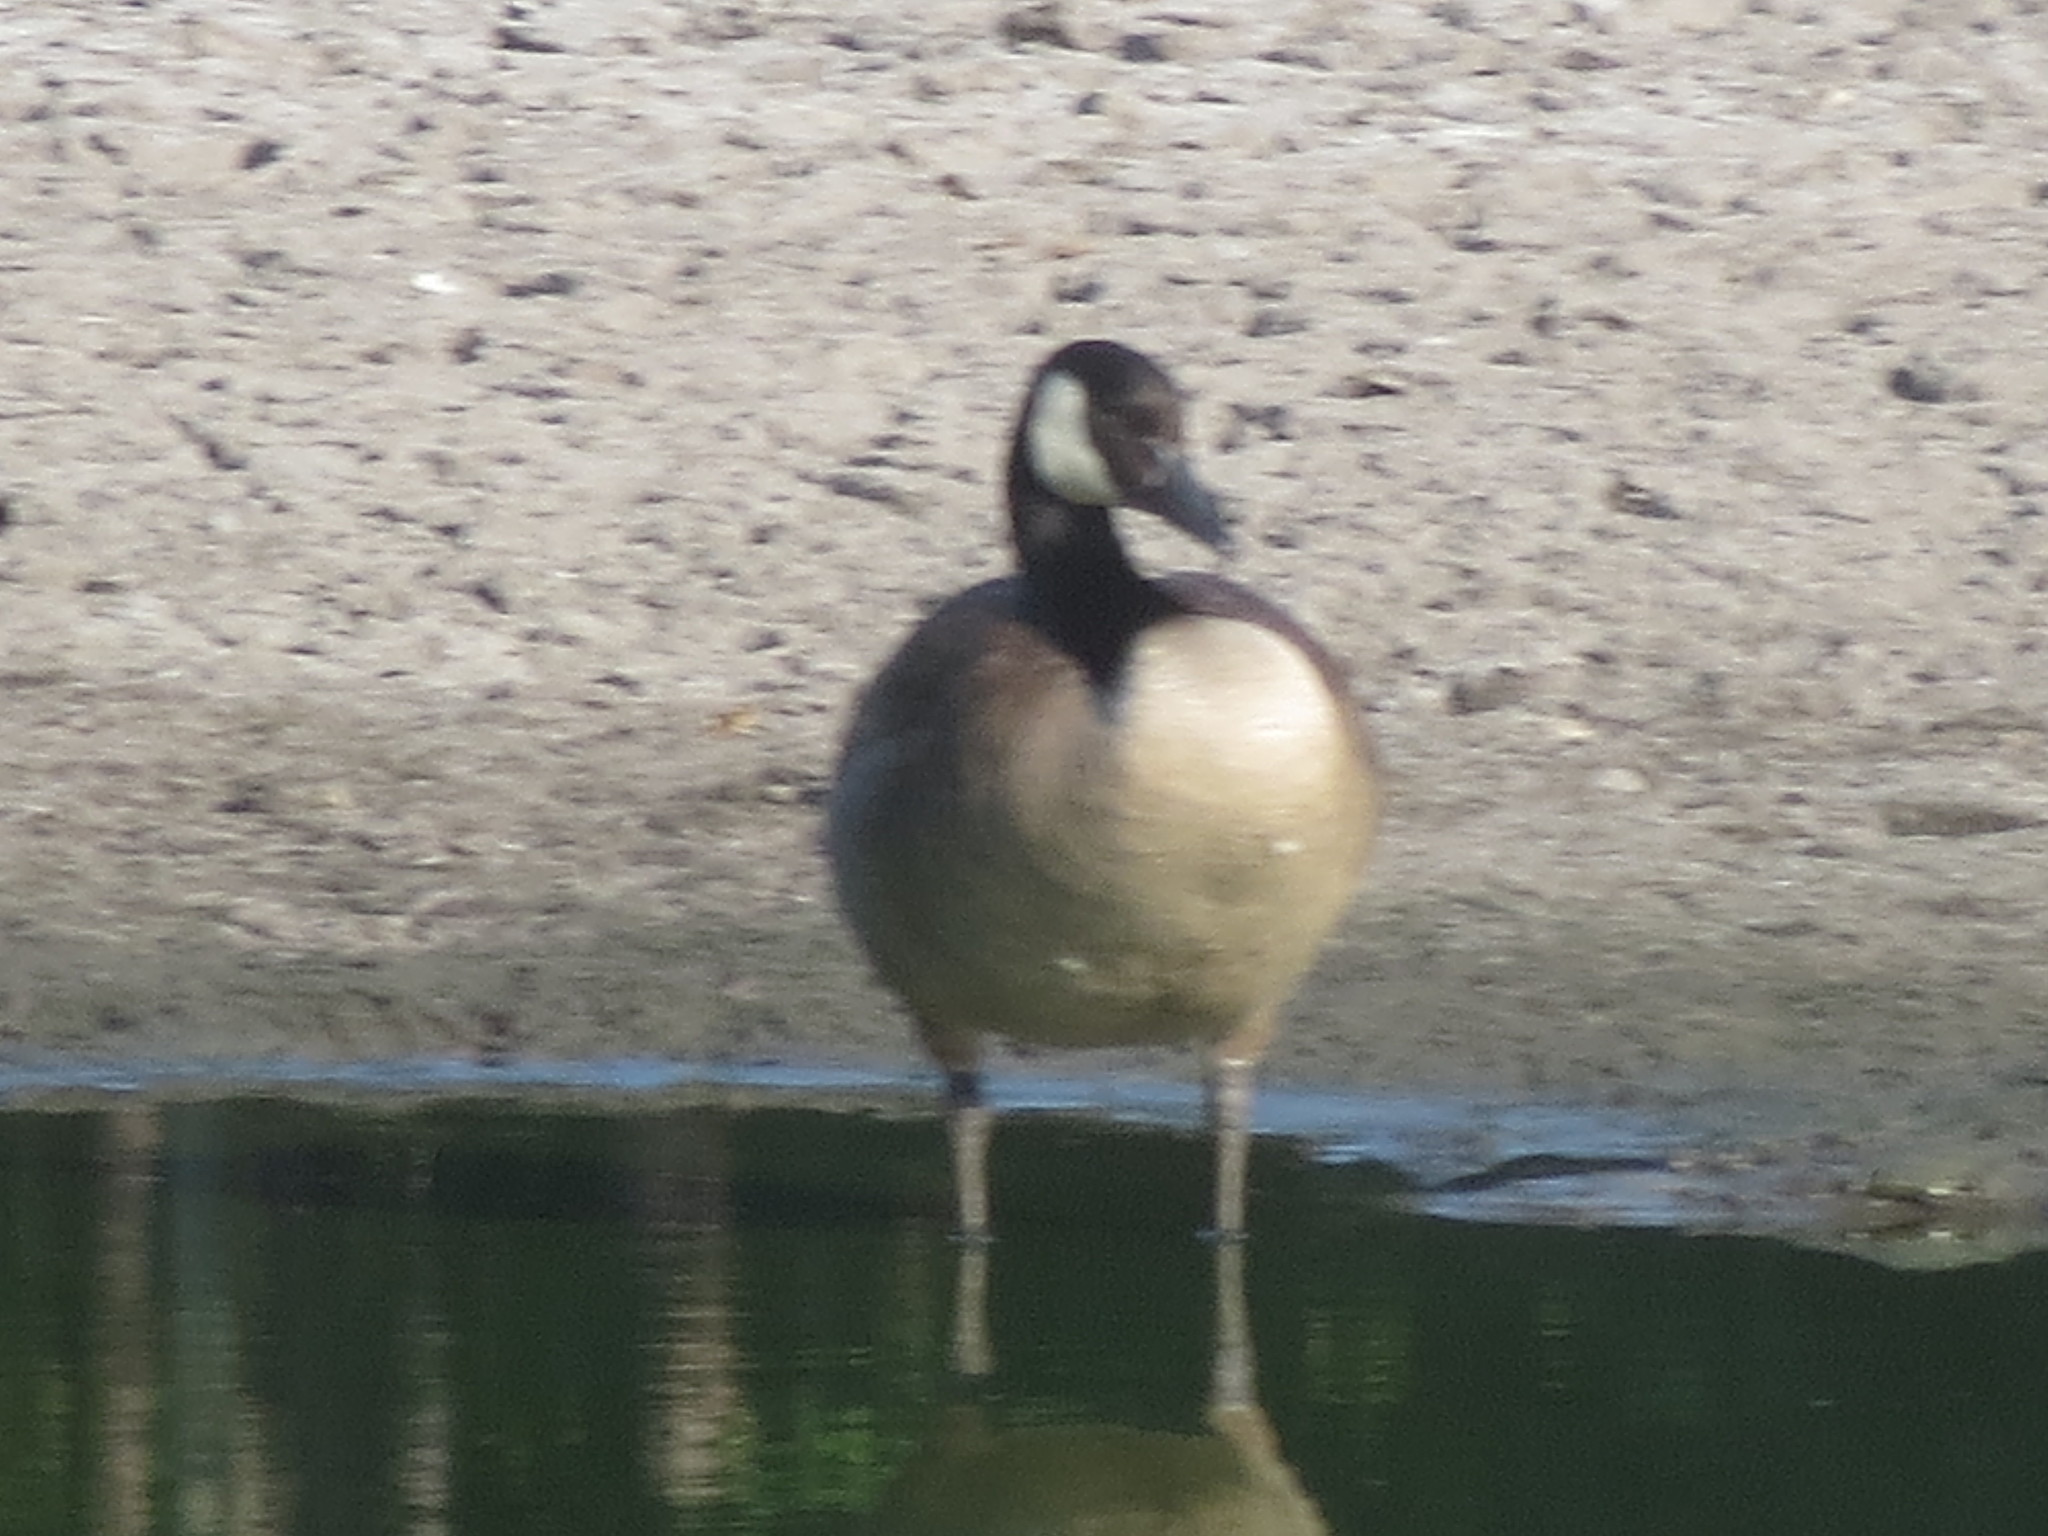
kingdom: Animalia
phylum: Chordata
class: Aves
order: Anseriformes
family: Anatidae
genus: Branta
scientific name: Branta canadensis
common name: Canada goose
